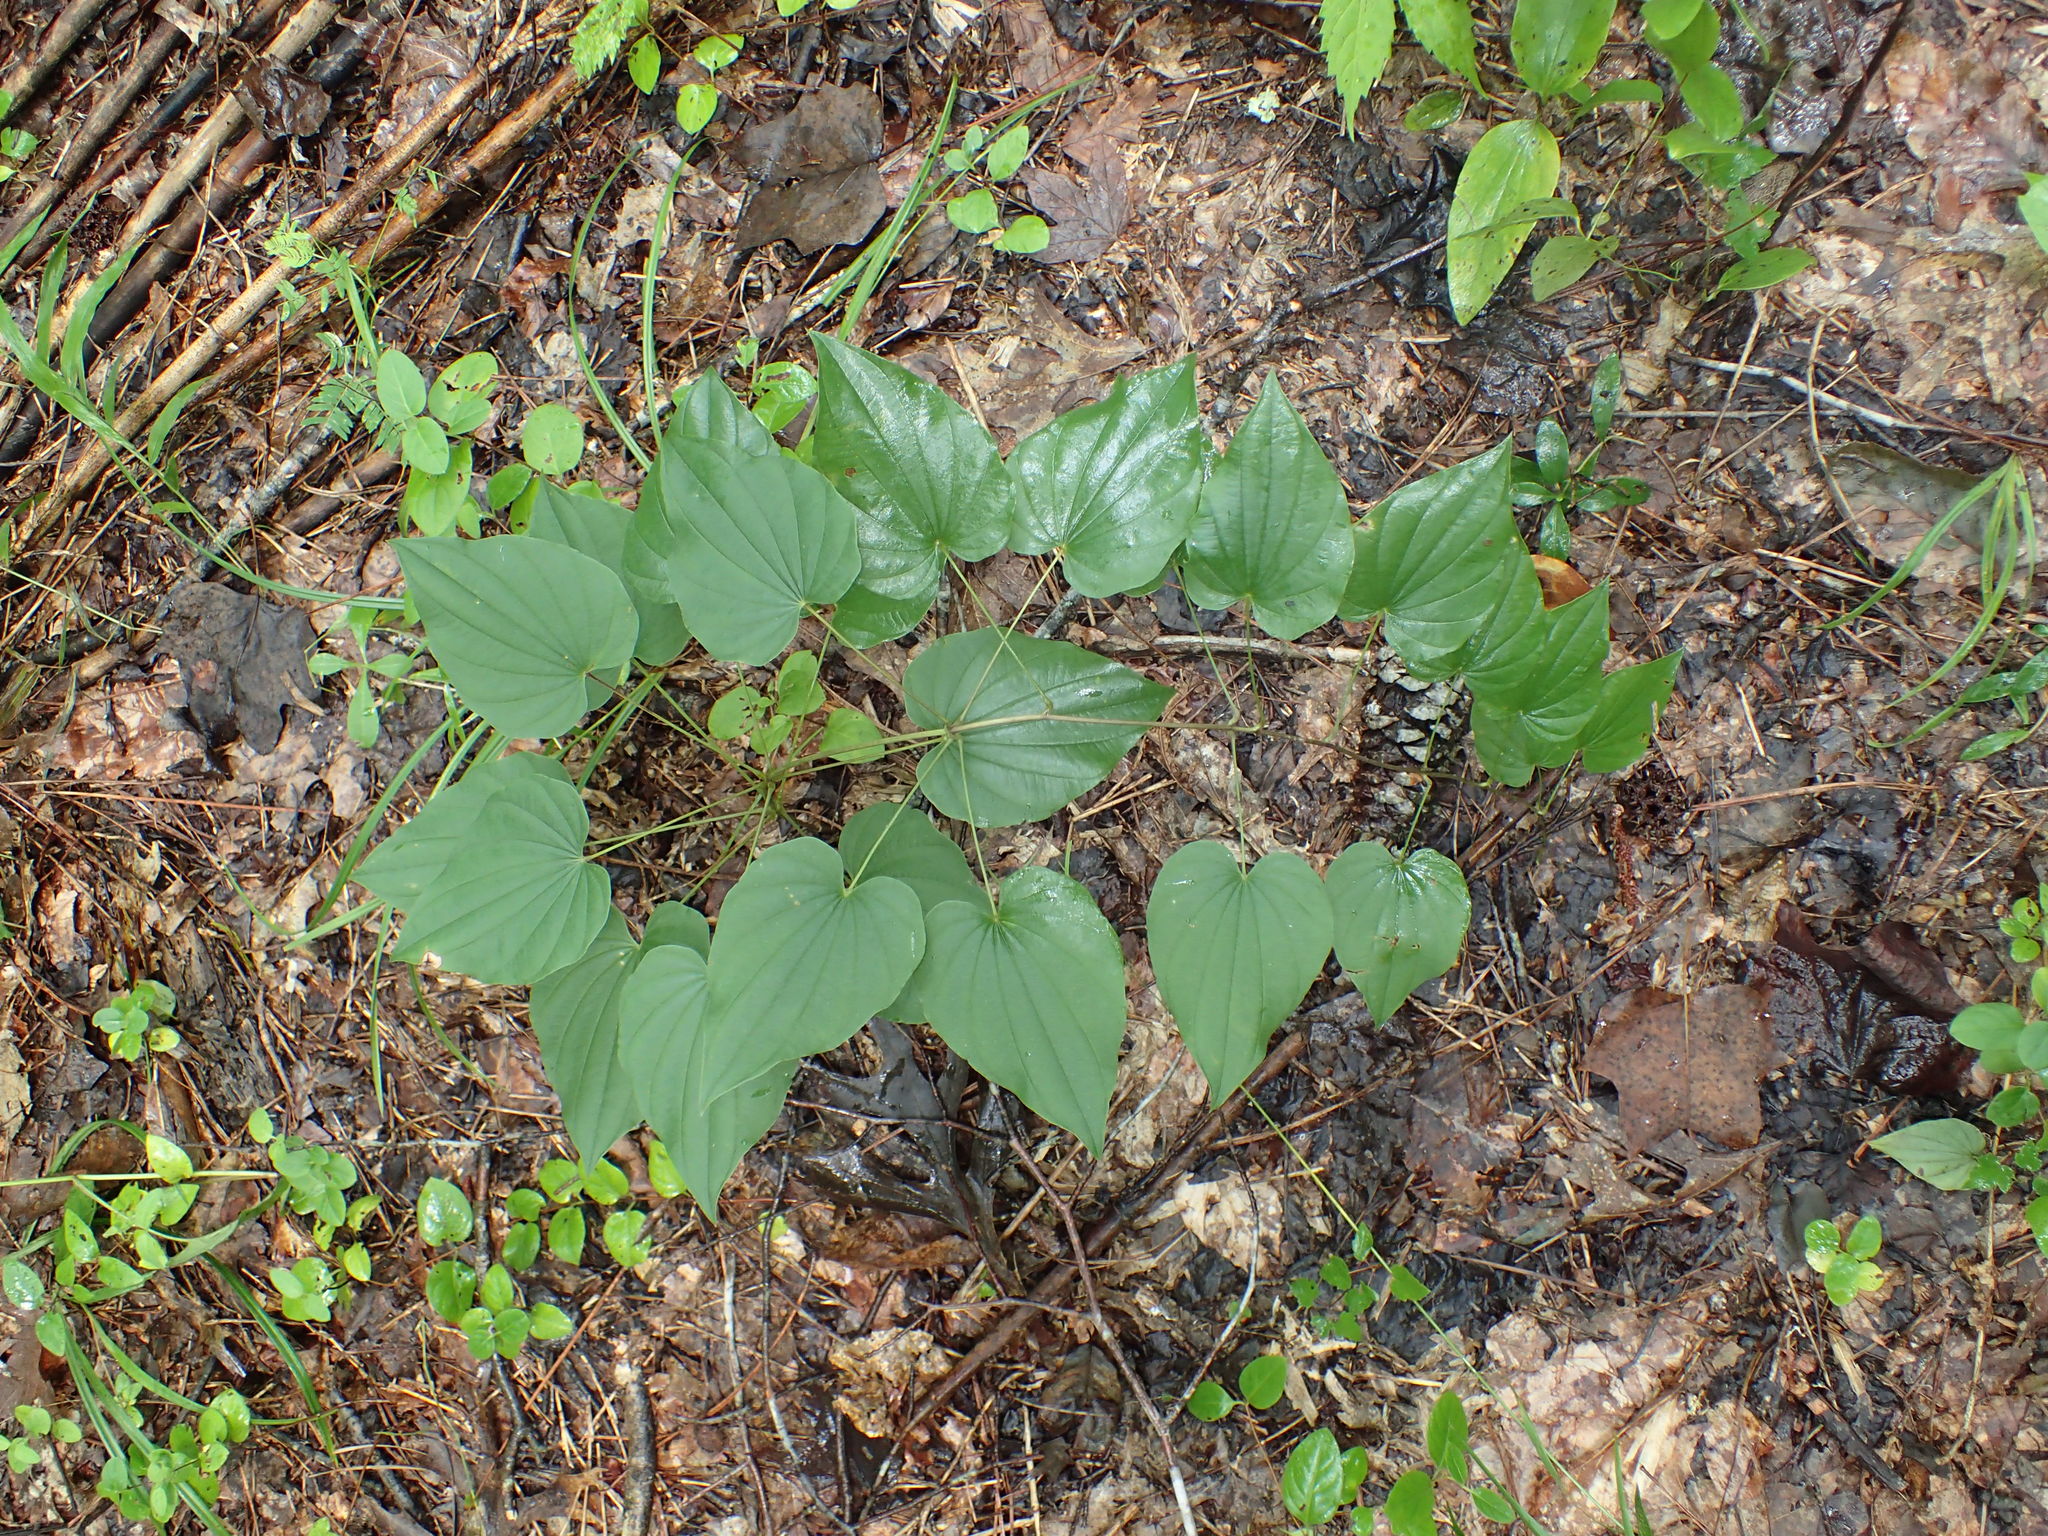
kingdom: Plantae
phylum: Tracheophyta
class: Liliopsida
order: Dioscoreales
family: Dioscoreaceae
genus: Dioscorea
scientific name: Dioscorea villosa
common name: Wild yam
